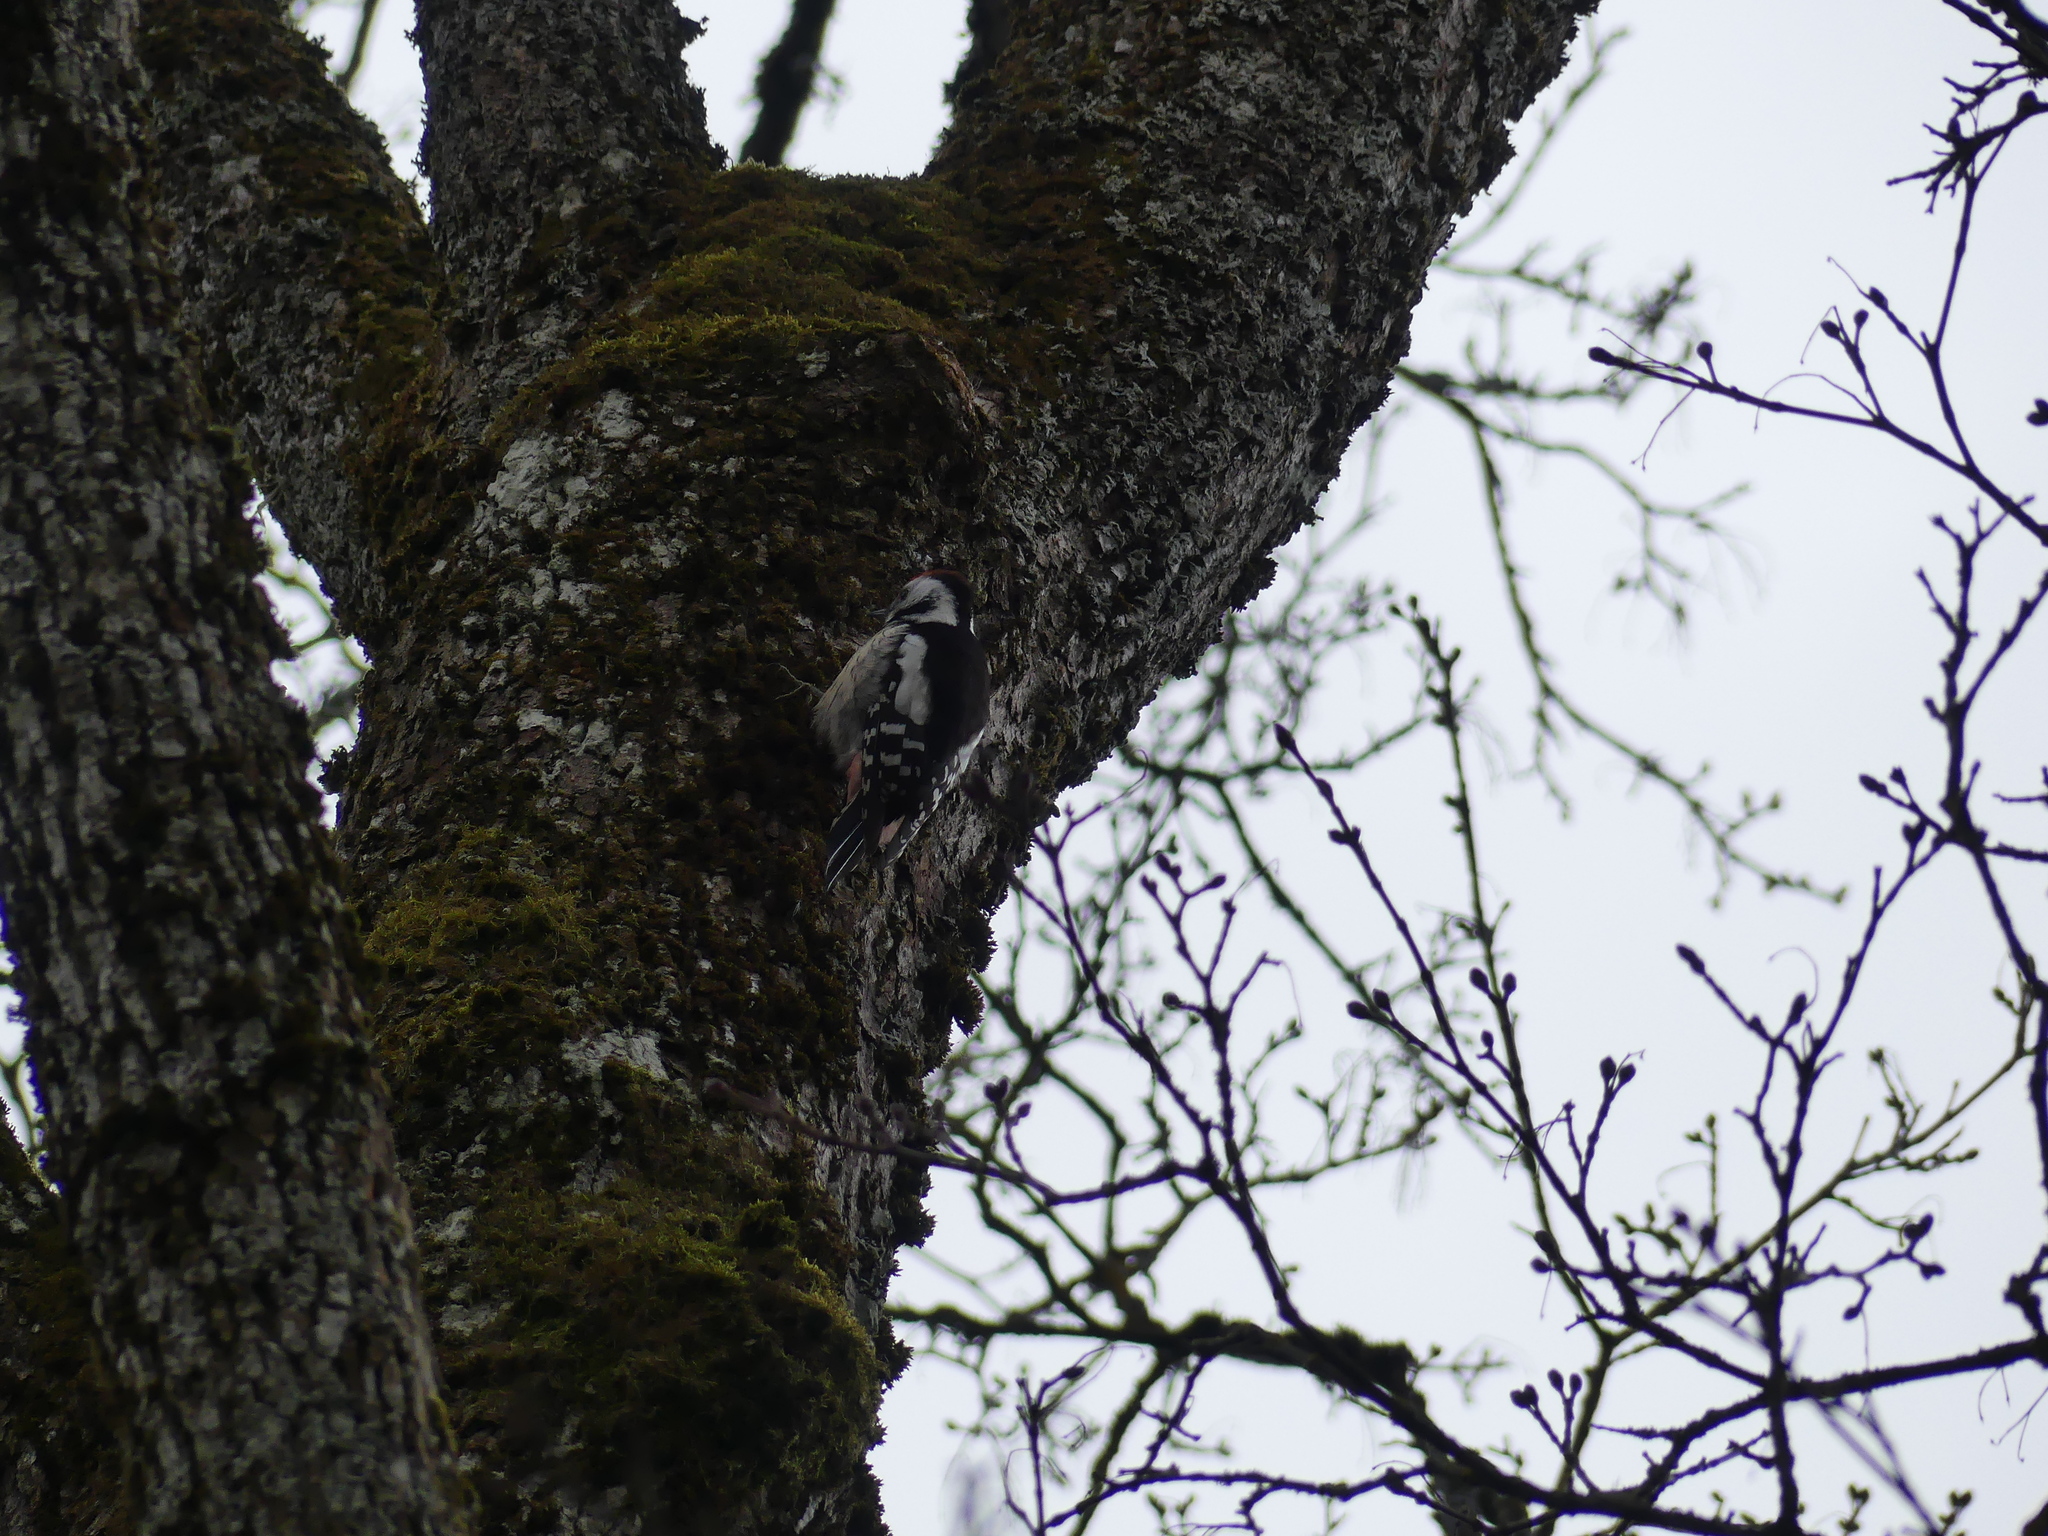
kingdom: Animalia
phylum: Chordata
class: Aves
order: Piciformes
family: Picidae
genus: Dendrocoptes
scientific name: Dendrocoptes medius
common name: Middle spotted woodpecker
